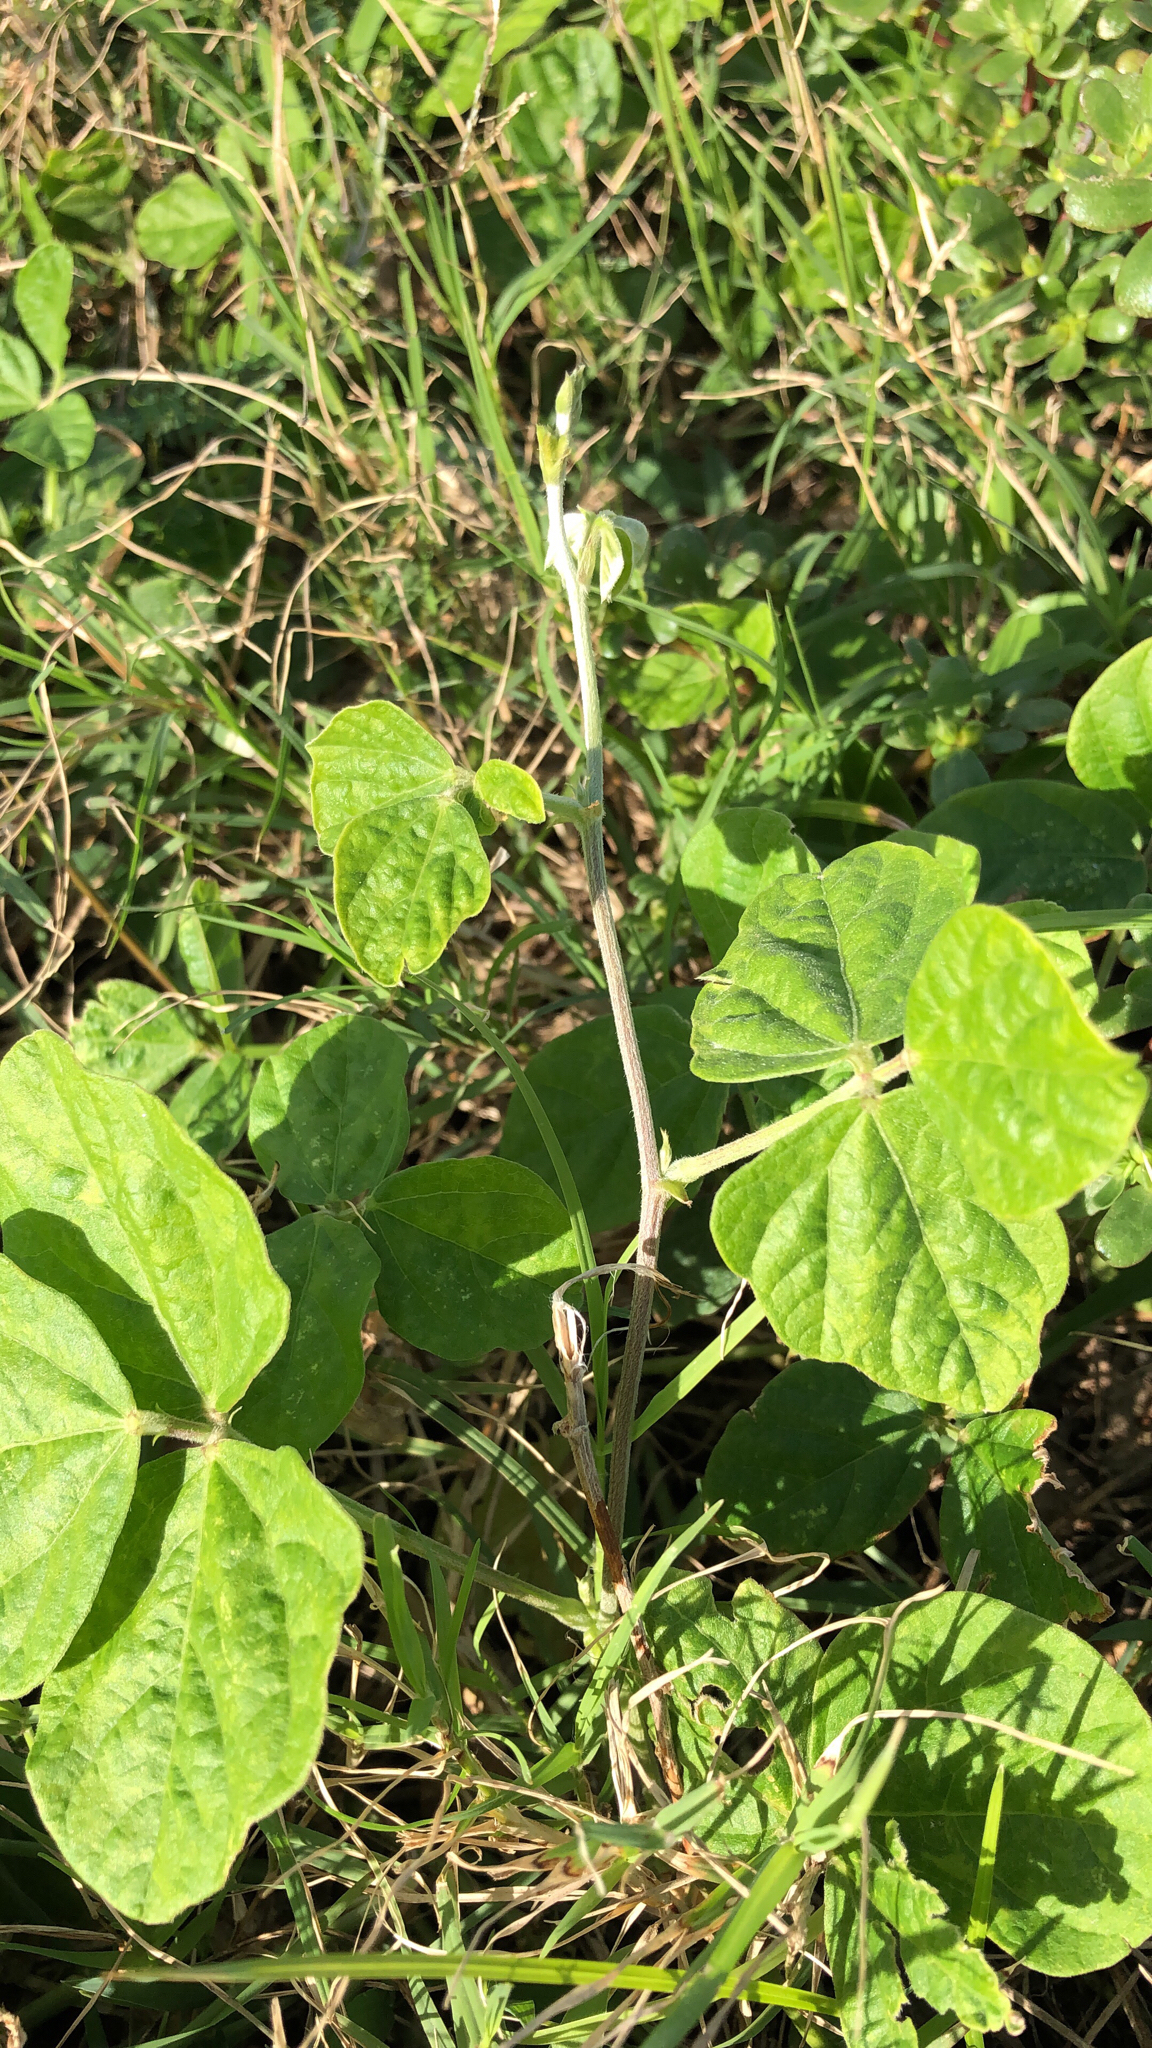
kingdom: Plantae
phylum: Tracheophyta
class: Magnoliopsida
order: Fabales
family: Fabaceae
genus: Macroptilium
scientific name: Macroptilium atropurpureum
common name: Purple bushbean
